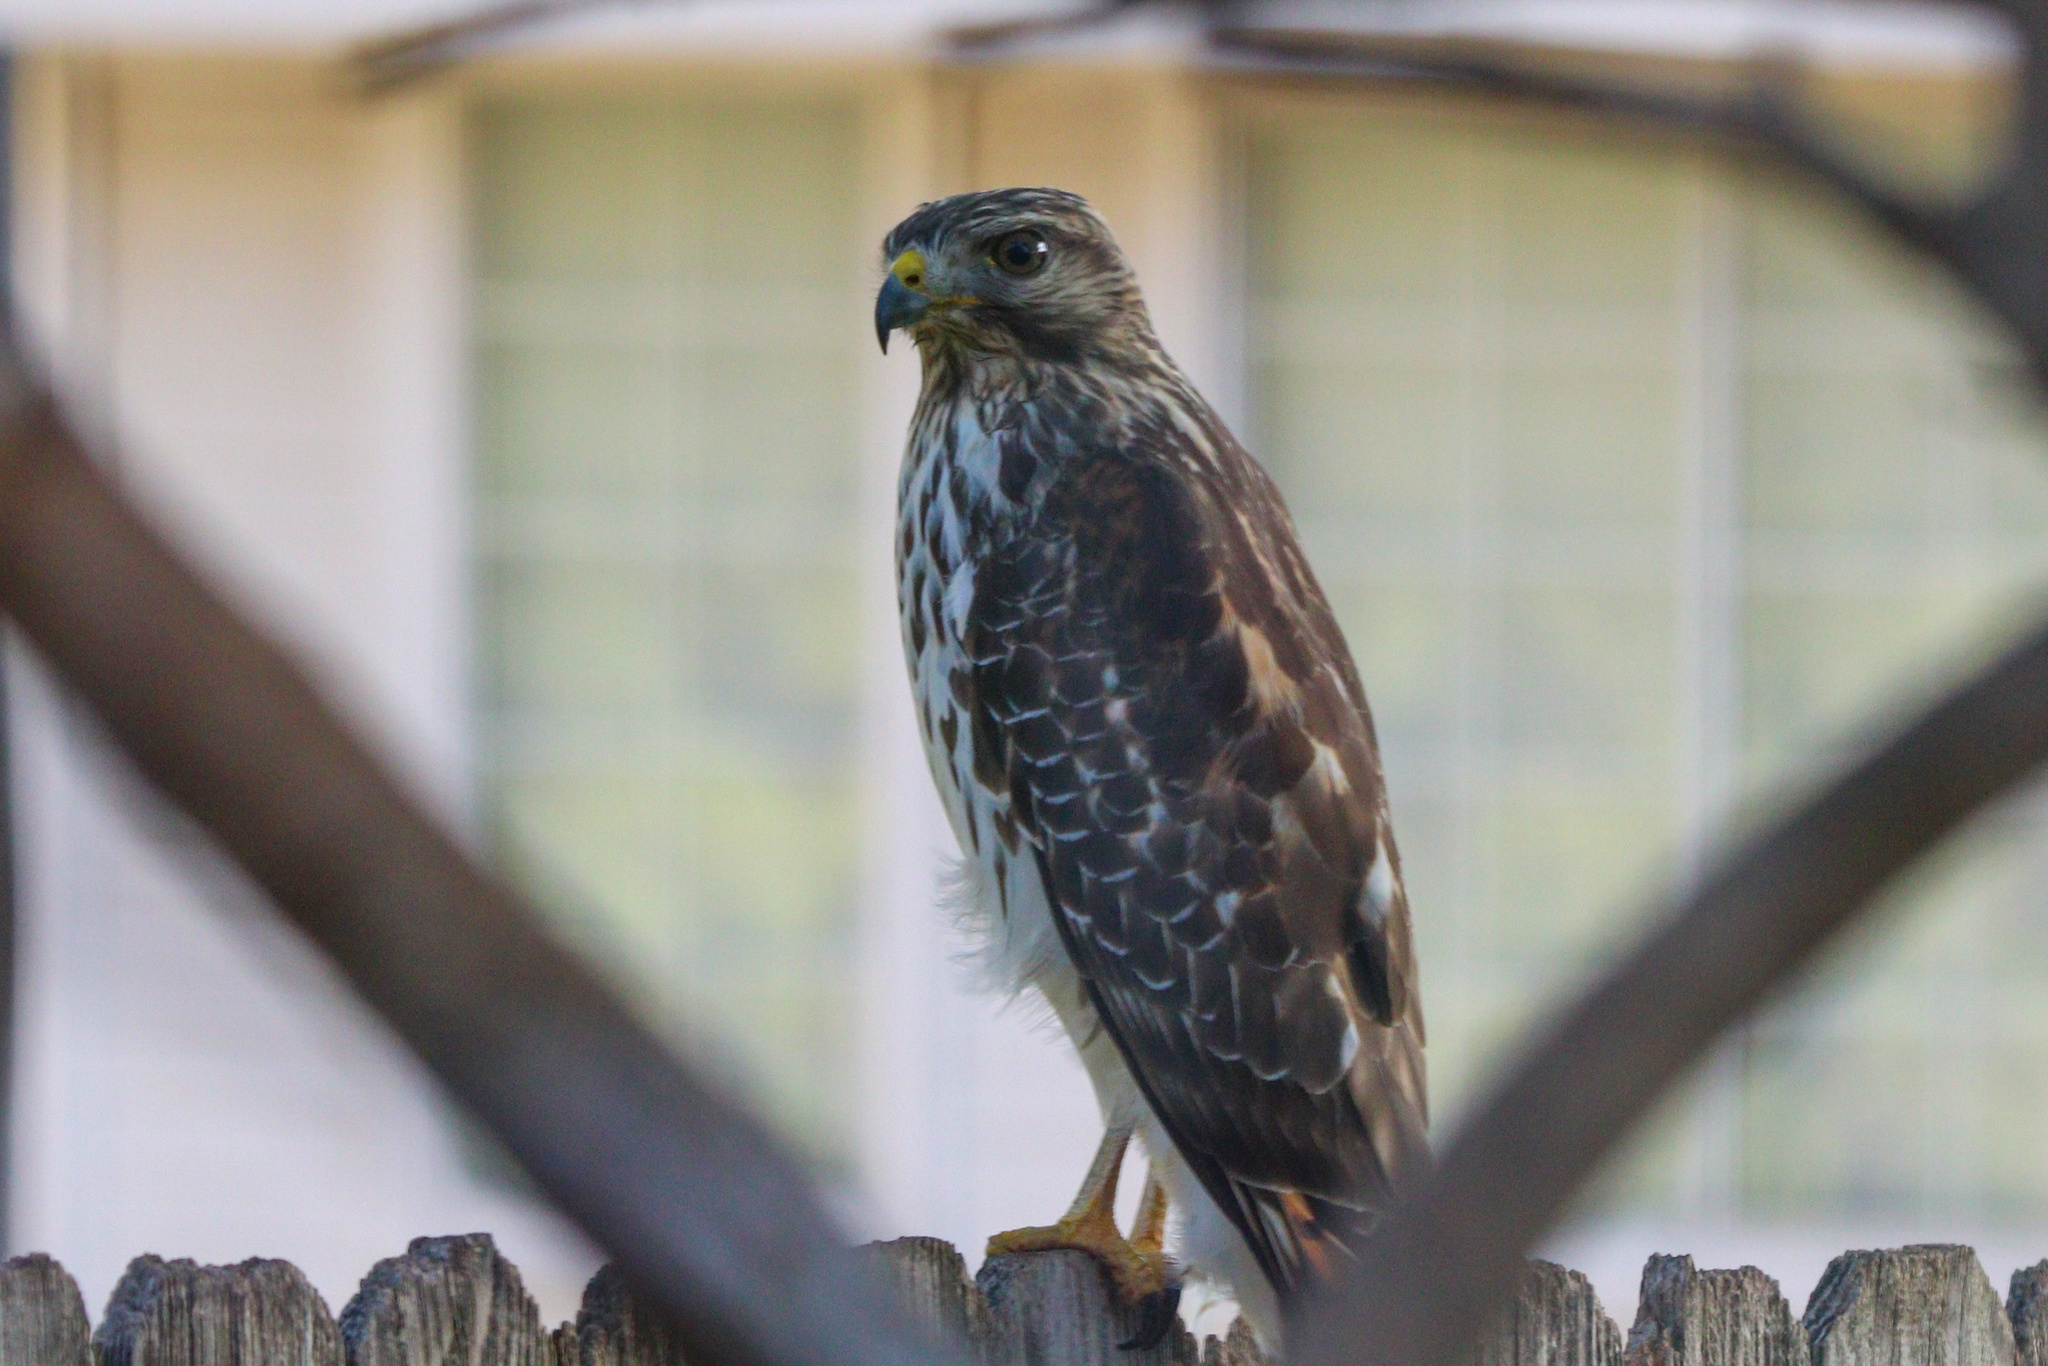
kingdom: Animalia
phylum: Chordata
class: Aves
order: Accipitriformes
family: Accipitridae
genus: Buteo
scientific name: Buteo lineatus
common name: Red-shouldered hawk
